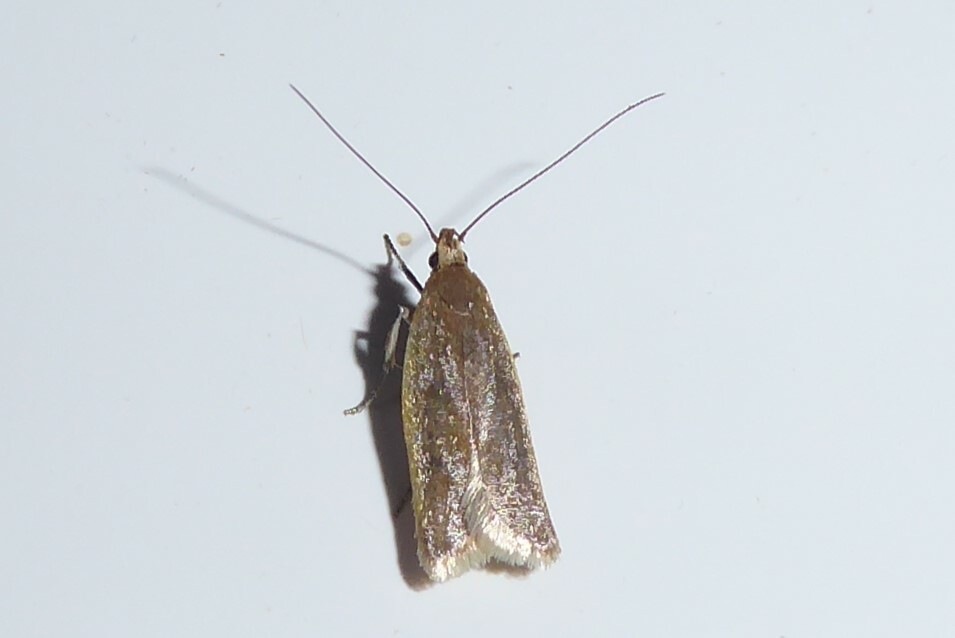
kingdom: Animalia
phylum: Arthropoda
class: Insecta
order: Lepidoptera
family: Oecophoridae
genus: Gymnobathra
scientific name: Gymnobathra parca
